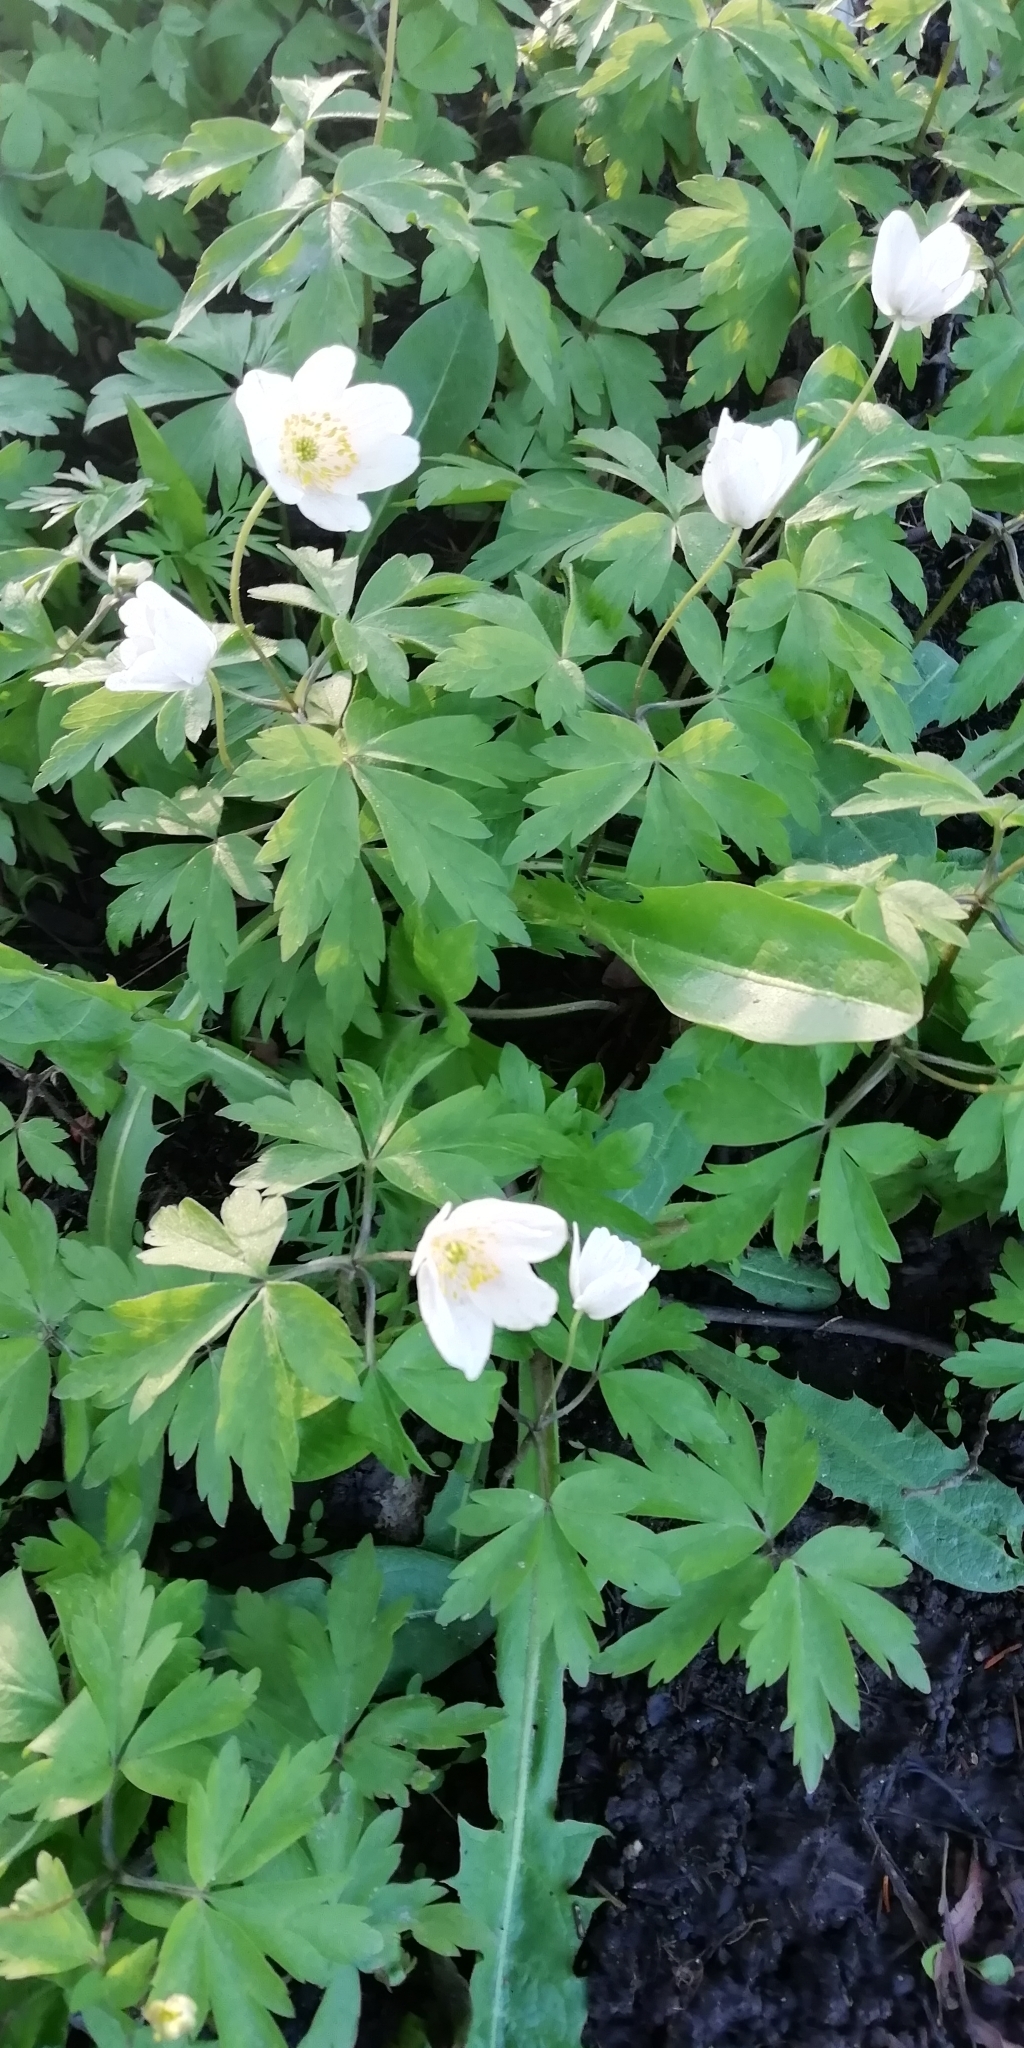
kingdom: Plantae
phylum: Tracheophyta
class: Magnoliopsida
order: Ranunculales
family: Ranunculaceae
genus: Anemone
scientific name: Anemone nemorosa
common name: Wood anemone
